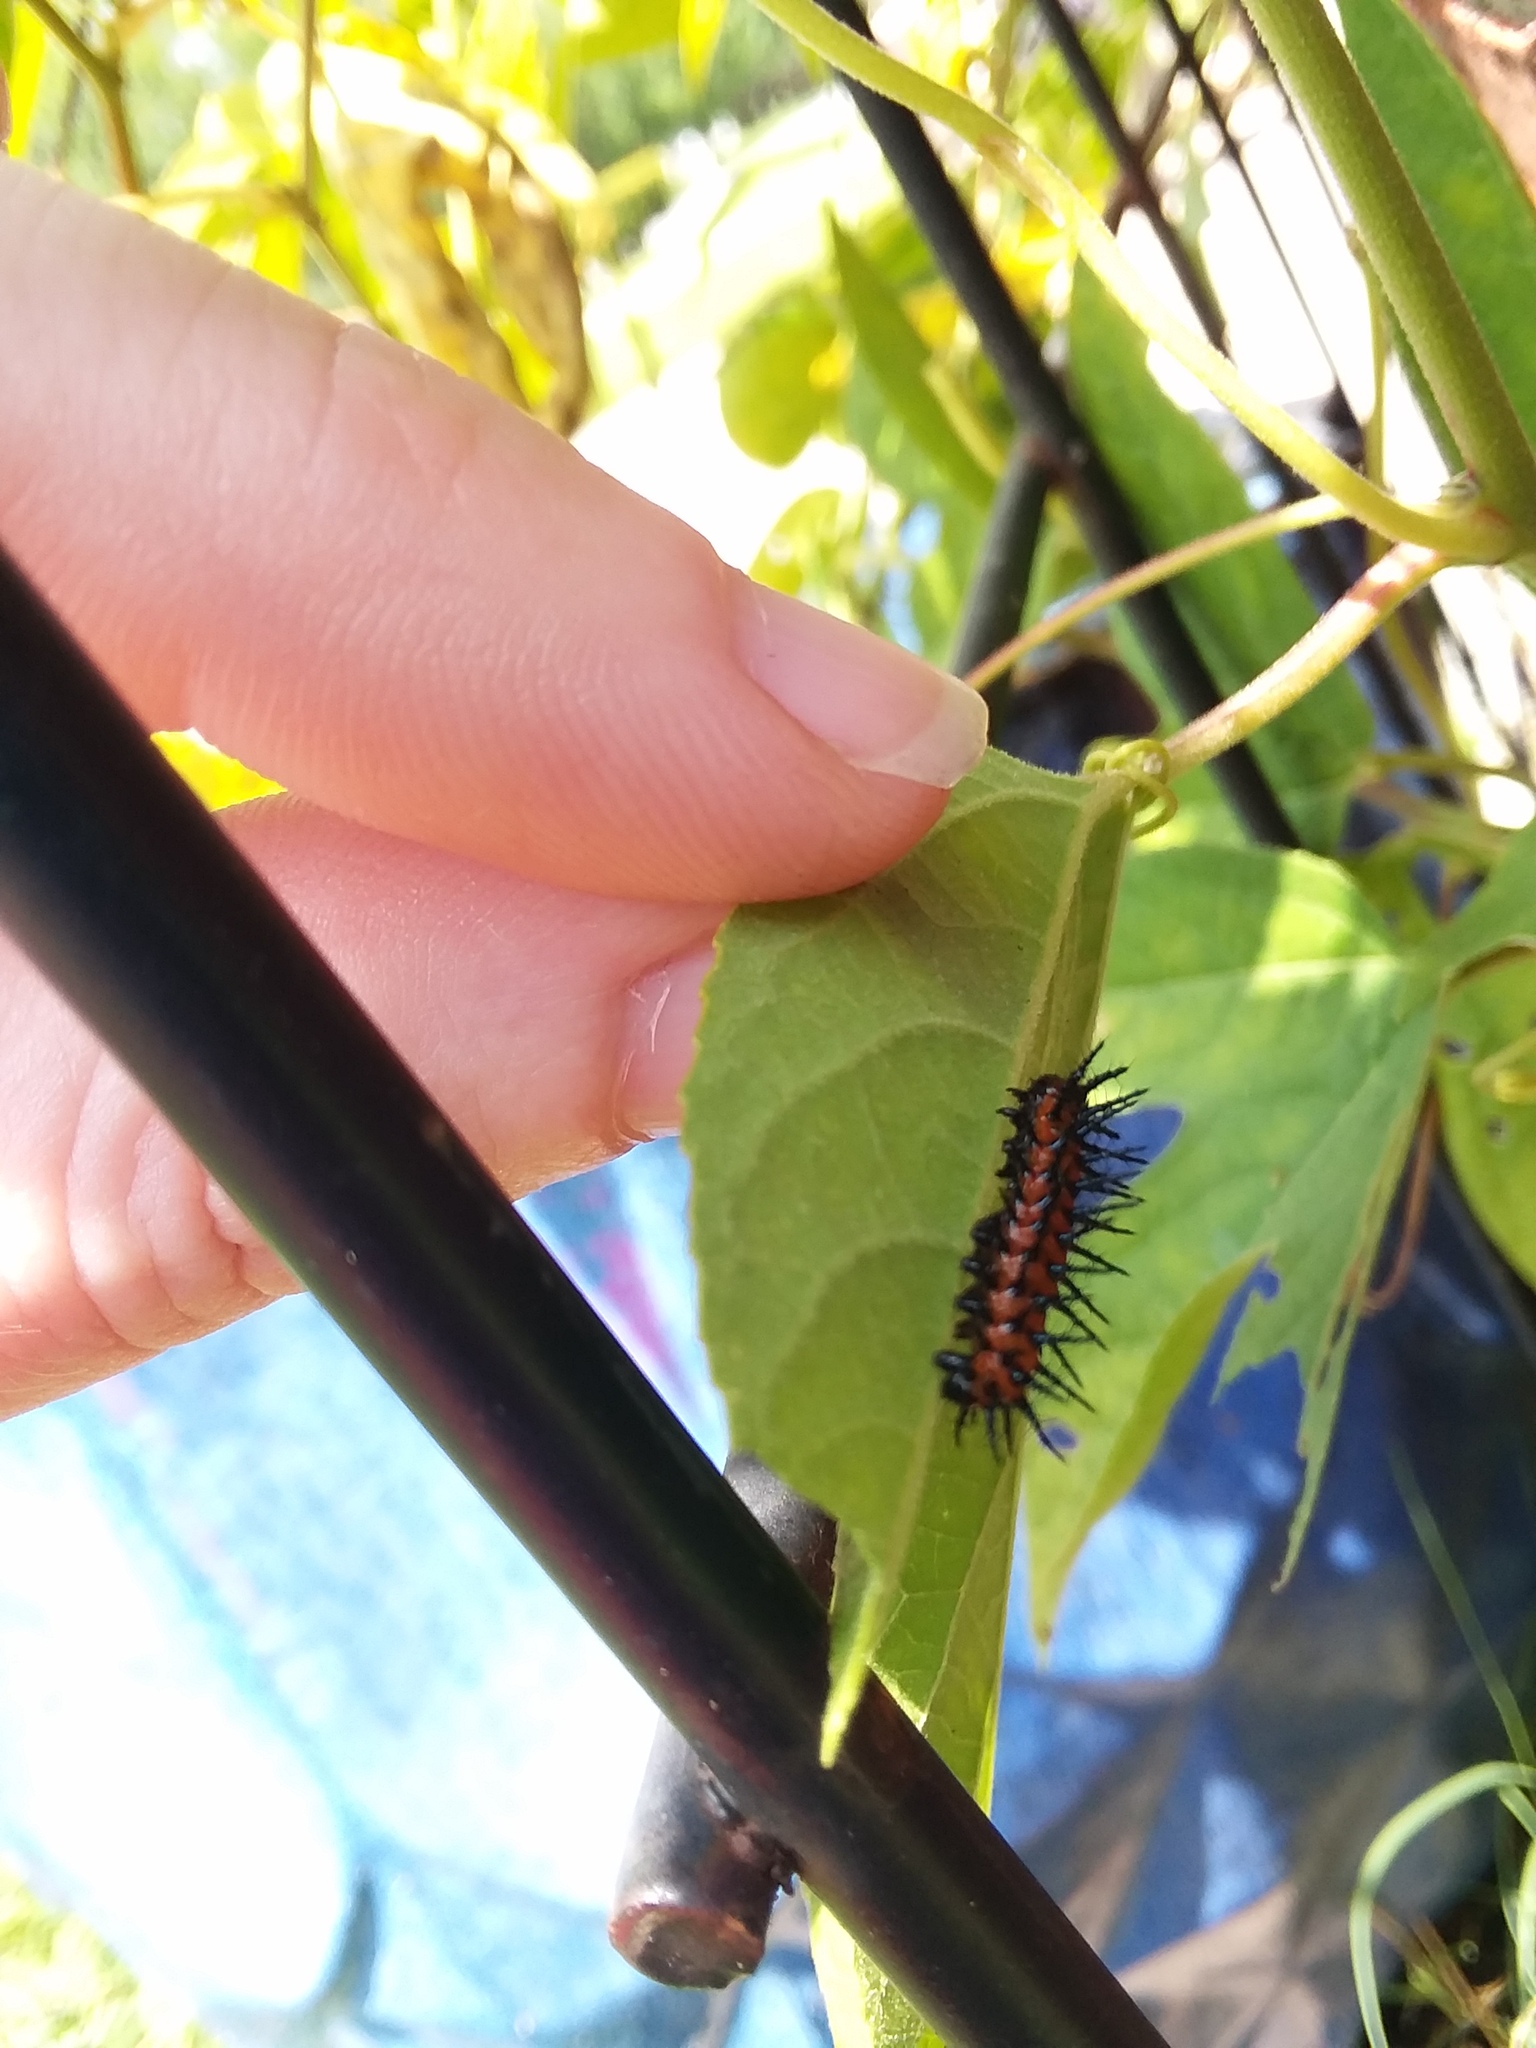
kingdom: Animalia
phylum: Arthropoda
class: Insecta
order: Lepidoptera
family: Nymphalidae
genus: Dione
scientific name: Dione vanillae
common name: Gulf fritillary
